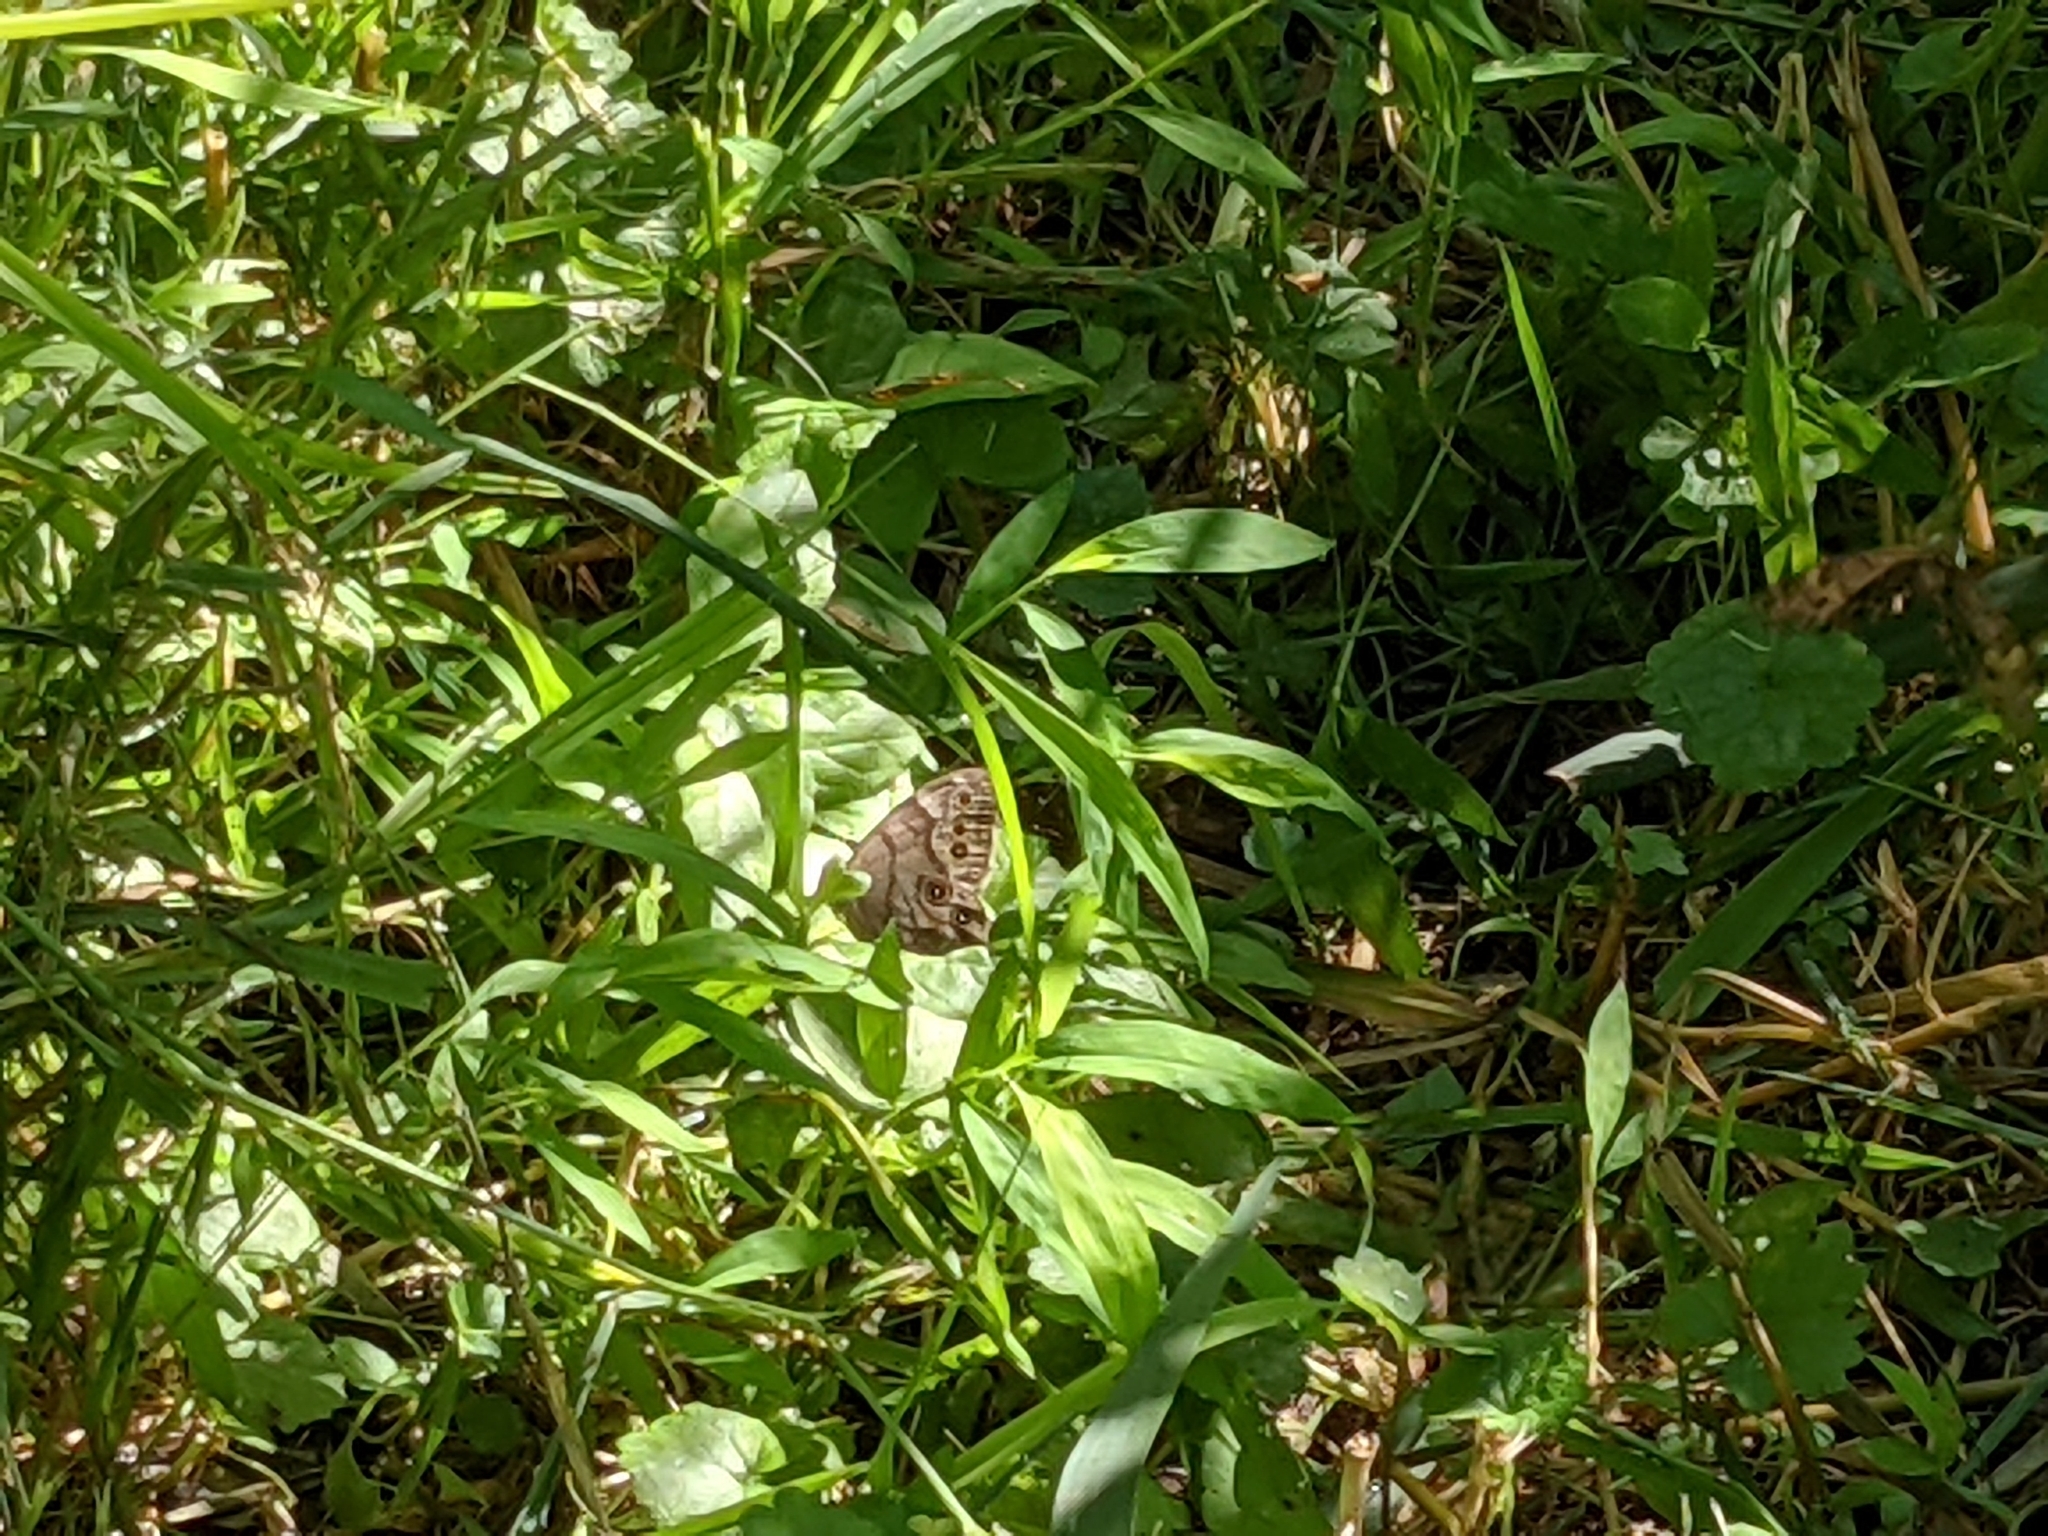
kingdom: Animalia
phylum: Arthropoda
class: Insecta
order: Lepidoptera
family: Nymphalidae
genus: Lethe
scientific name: Lethe anthedon
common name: Northern pearly-eye
